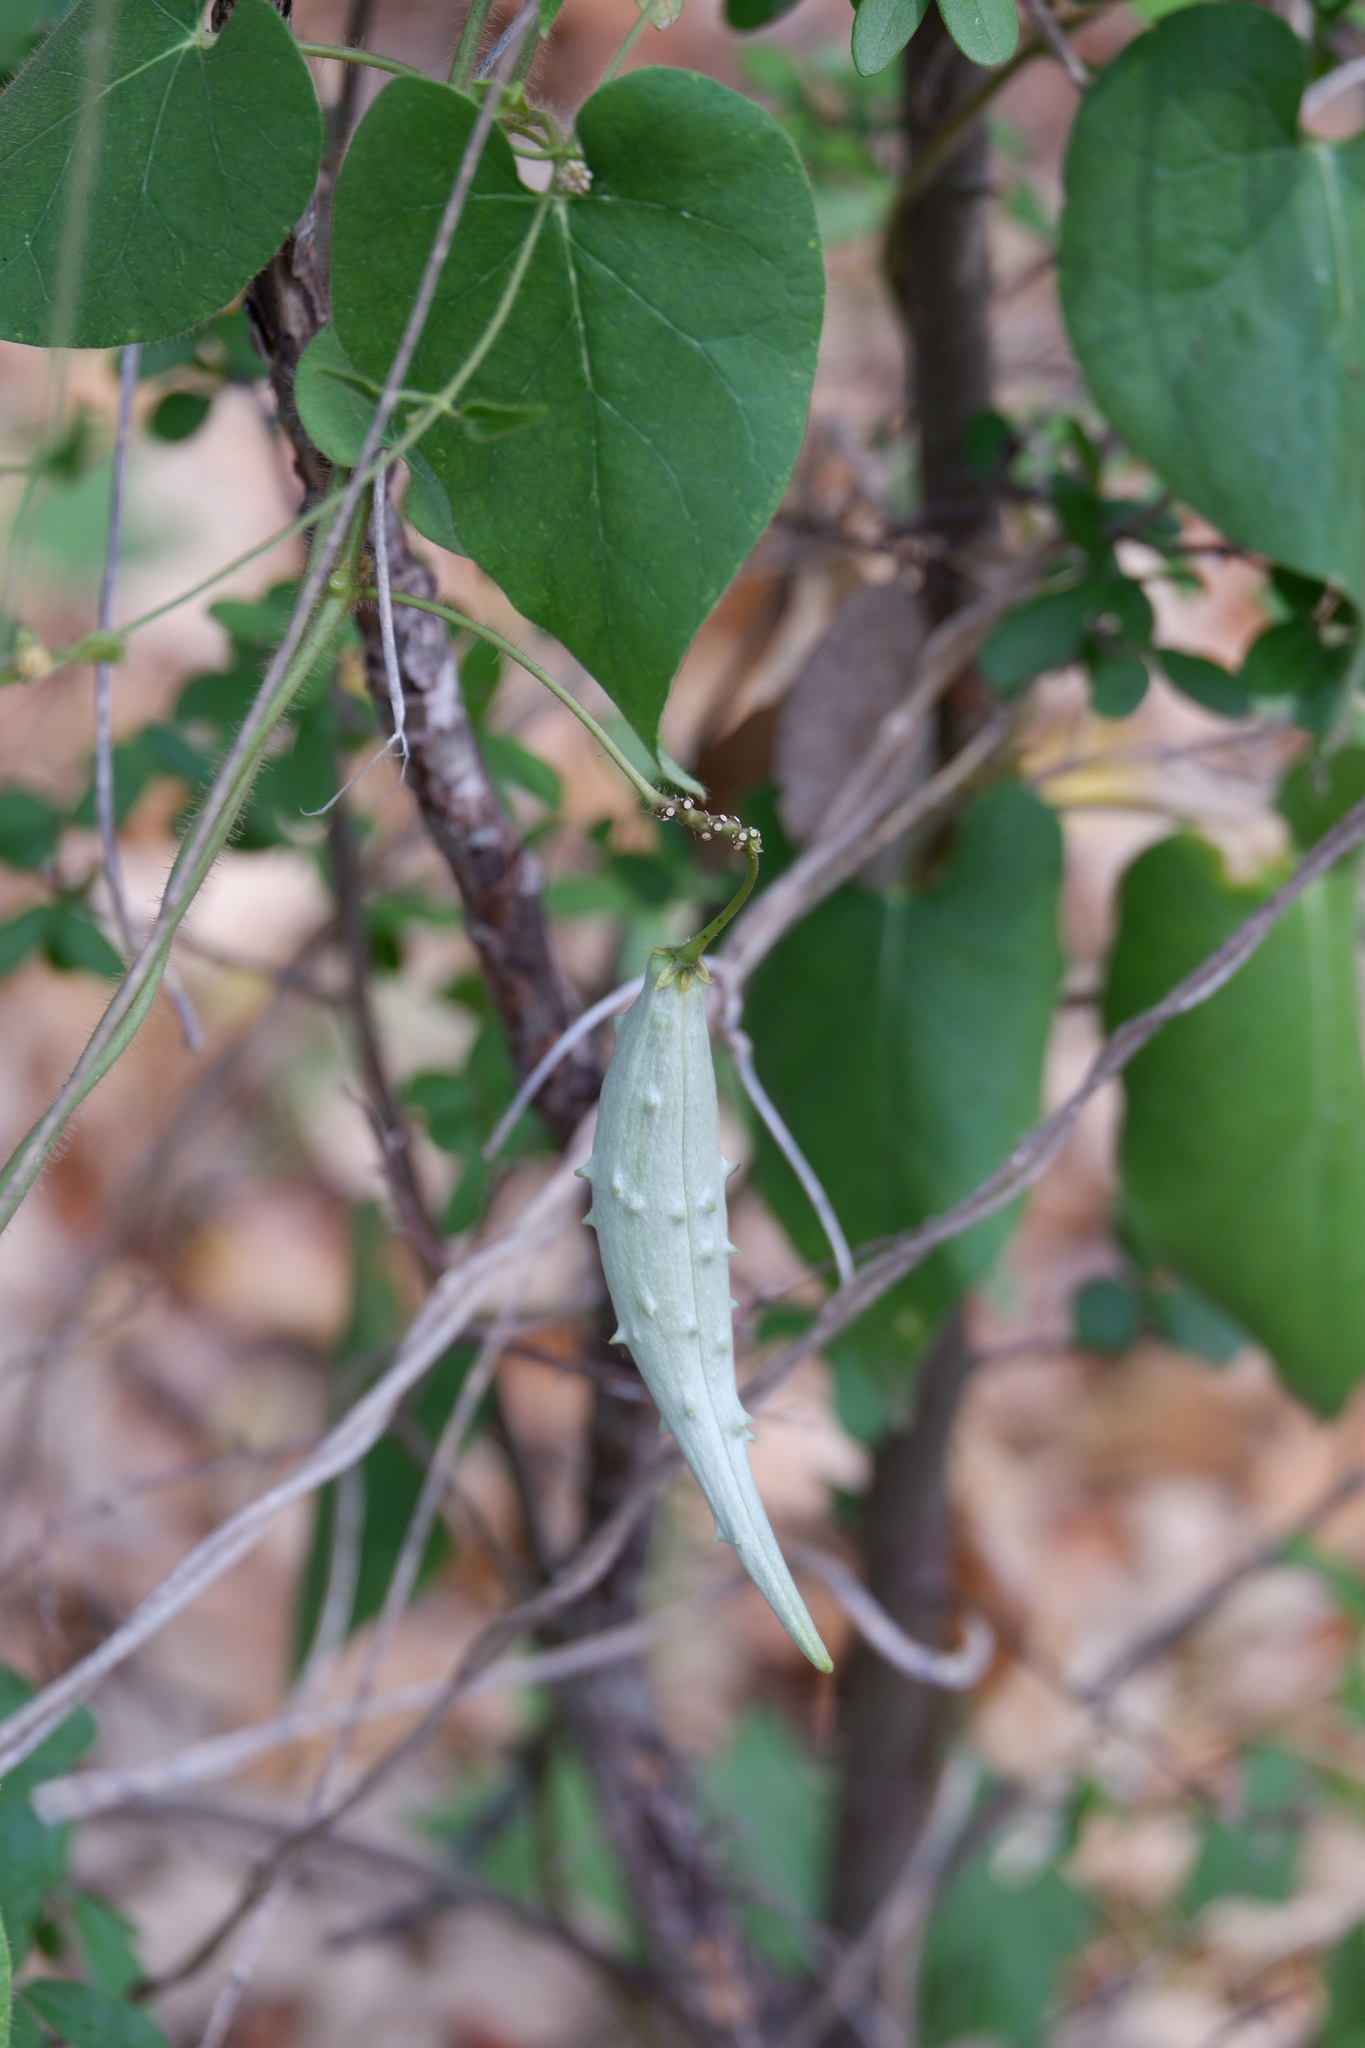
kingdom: Plantae
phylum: Tracheophyta
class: Magnoliopsida
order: Gentianales
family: Apocynaceae
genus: Dictyanthus
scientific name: Dictyanthus reticulatus
